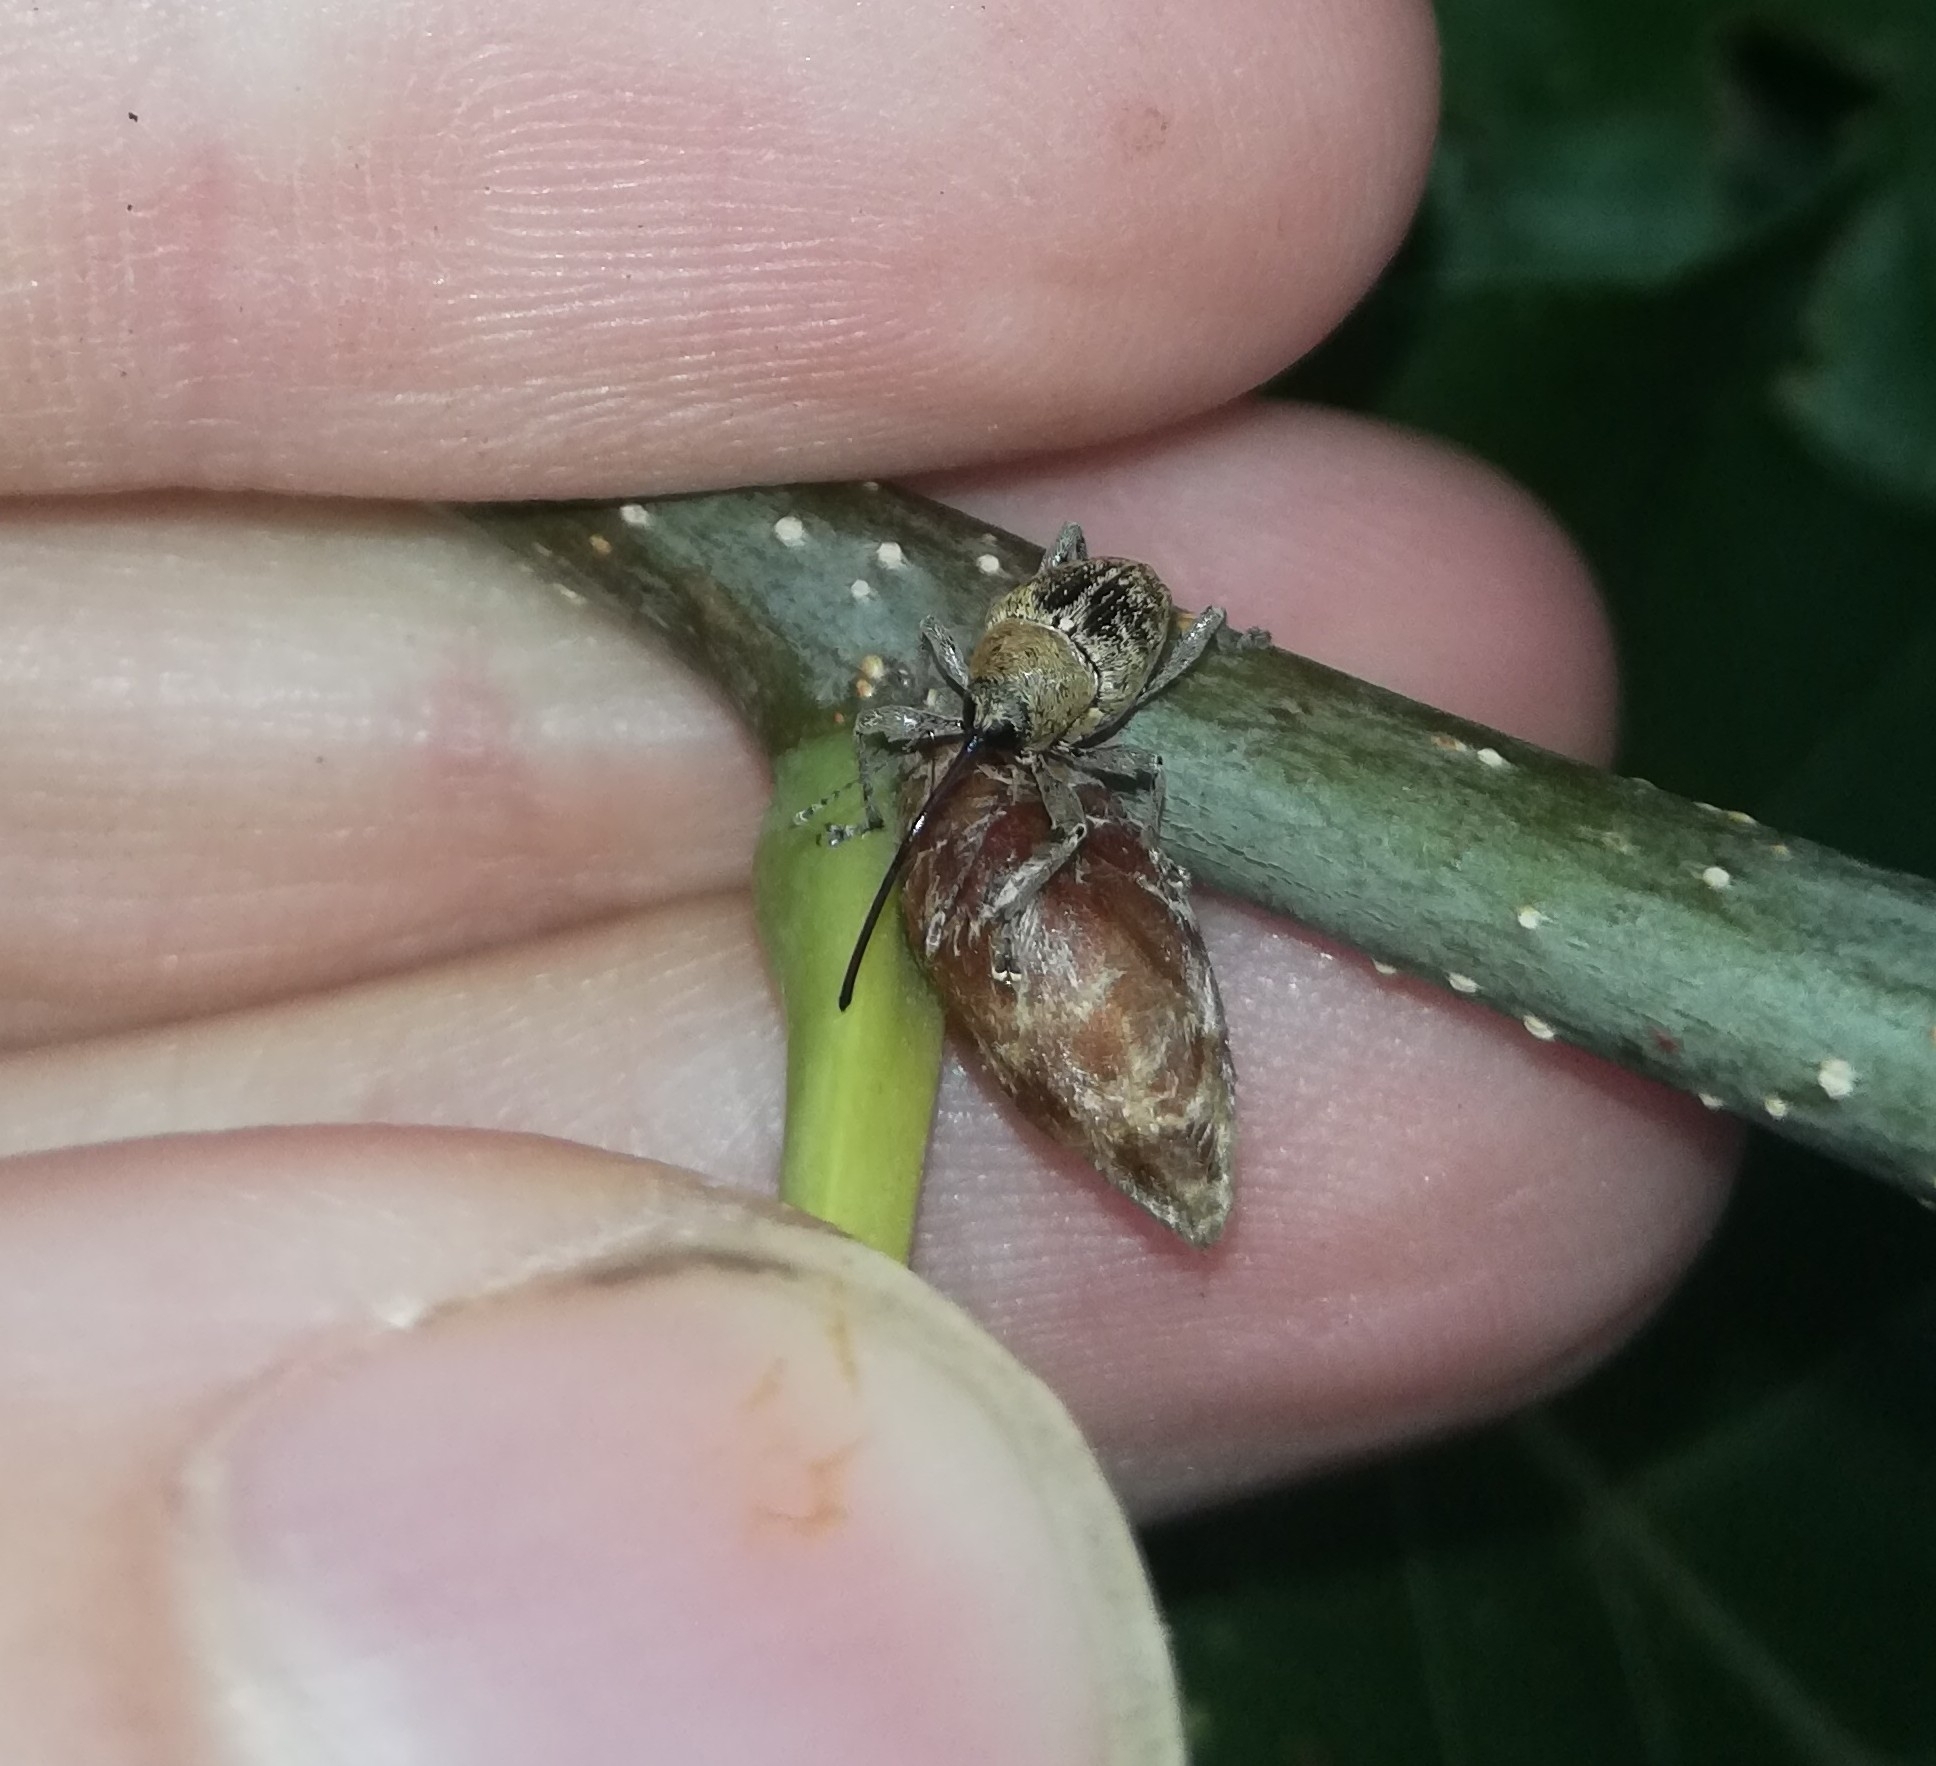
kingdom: Animalia
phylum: Arthropoda
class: Insecta
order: Coleoptera
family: Curculionidae
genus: Curculio
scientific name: Curculio glandium
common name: Acorn weevil
